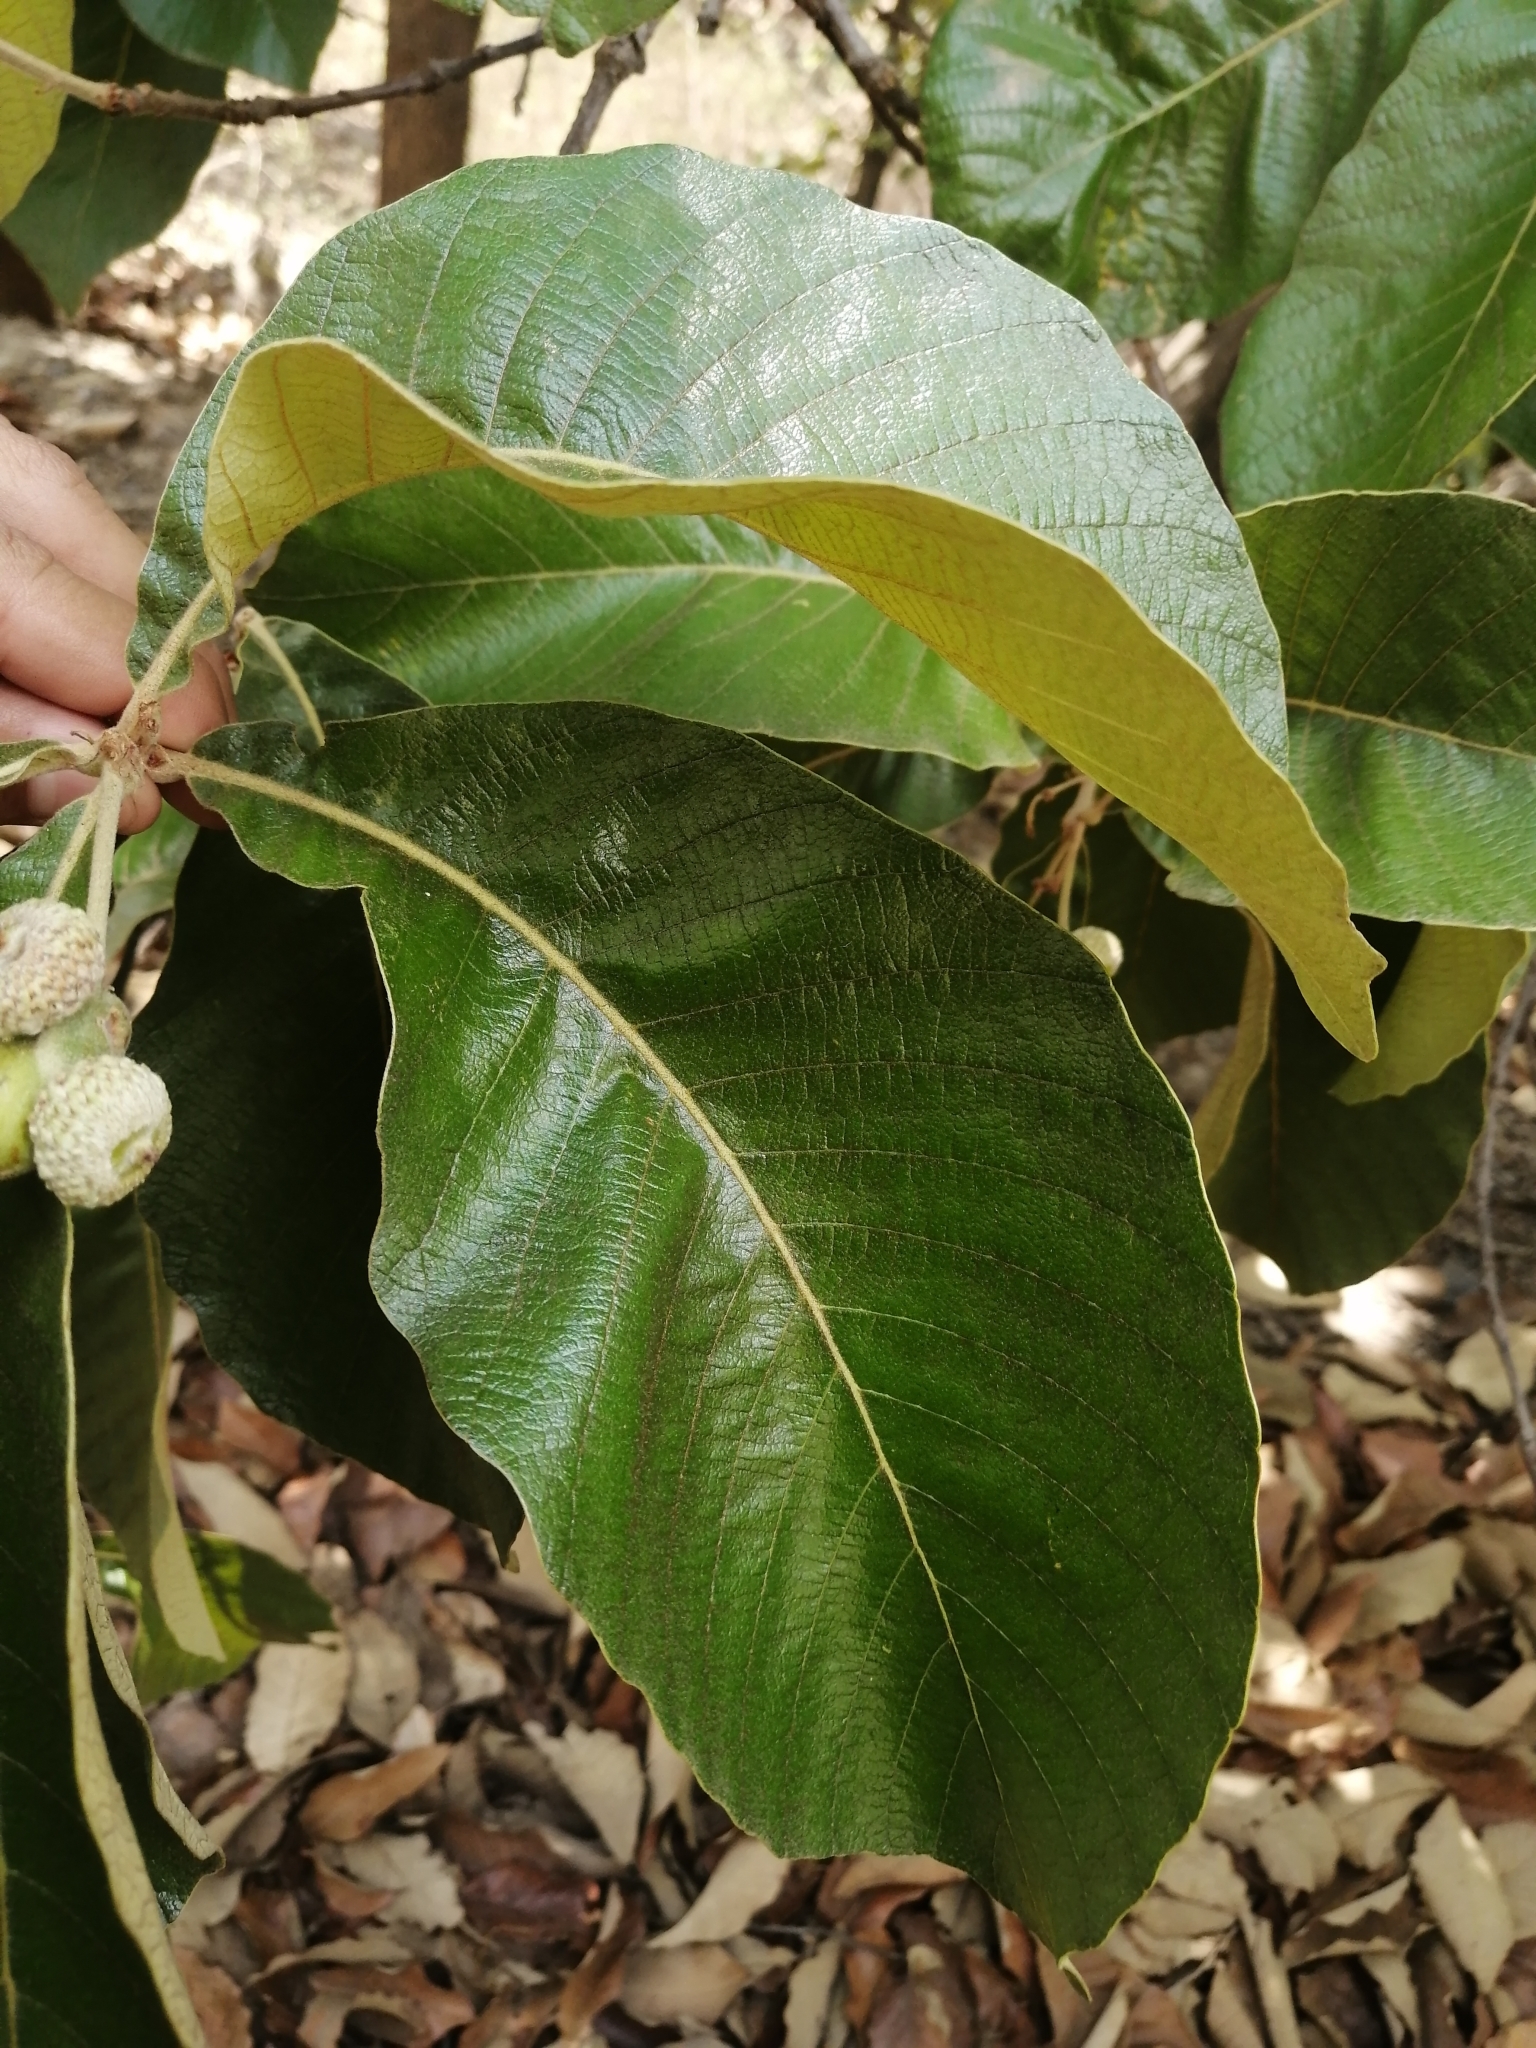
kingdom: Plantae
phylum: Tracheophyta
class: Magnoliopsida
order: Fagales
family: Fagaceae
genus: Quercus
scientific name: Quercus magnoliifolia
